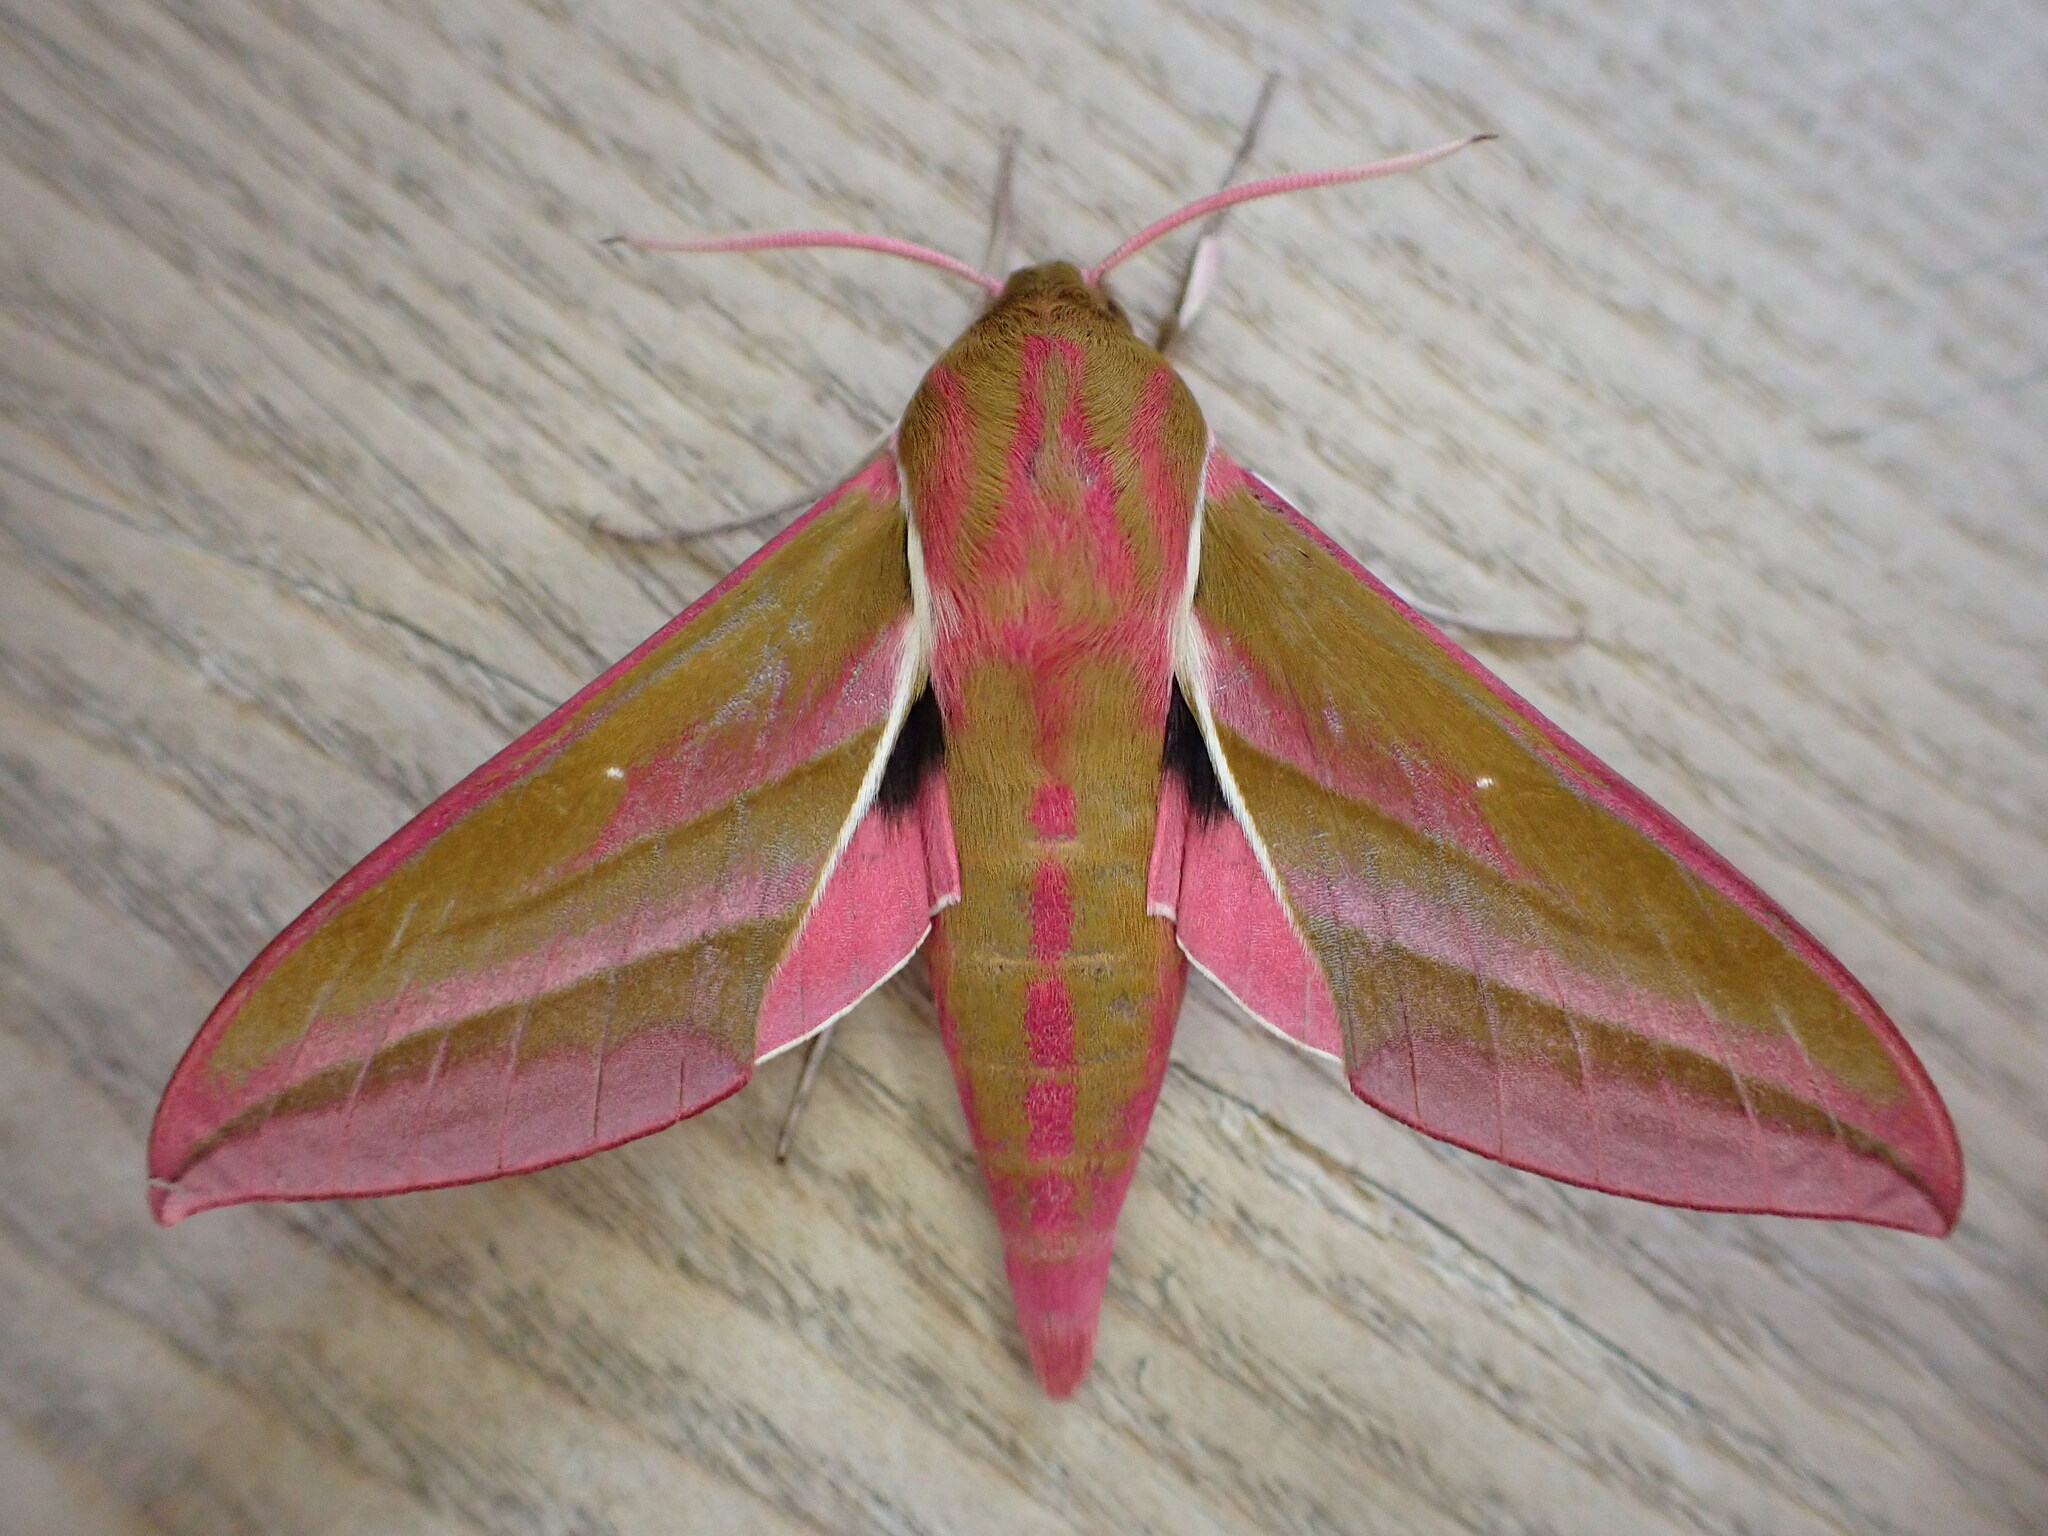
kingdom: Animalia
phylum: Arthropoda
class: Insecta
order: Lepidoptera
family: Sphingidae
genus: Deilephila
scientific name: Deilephila elpenor
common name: Elephant hawk-moth
